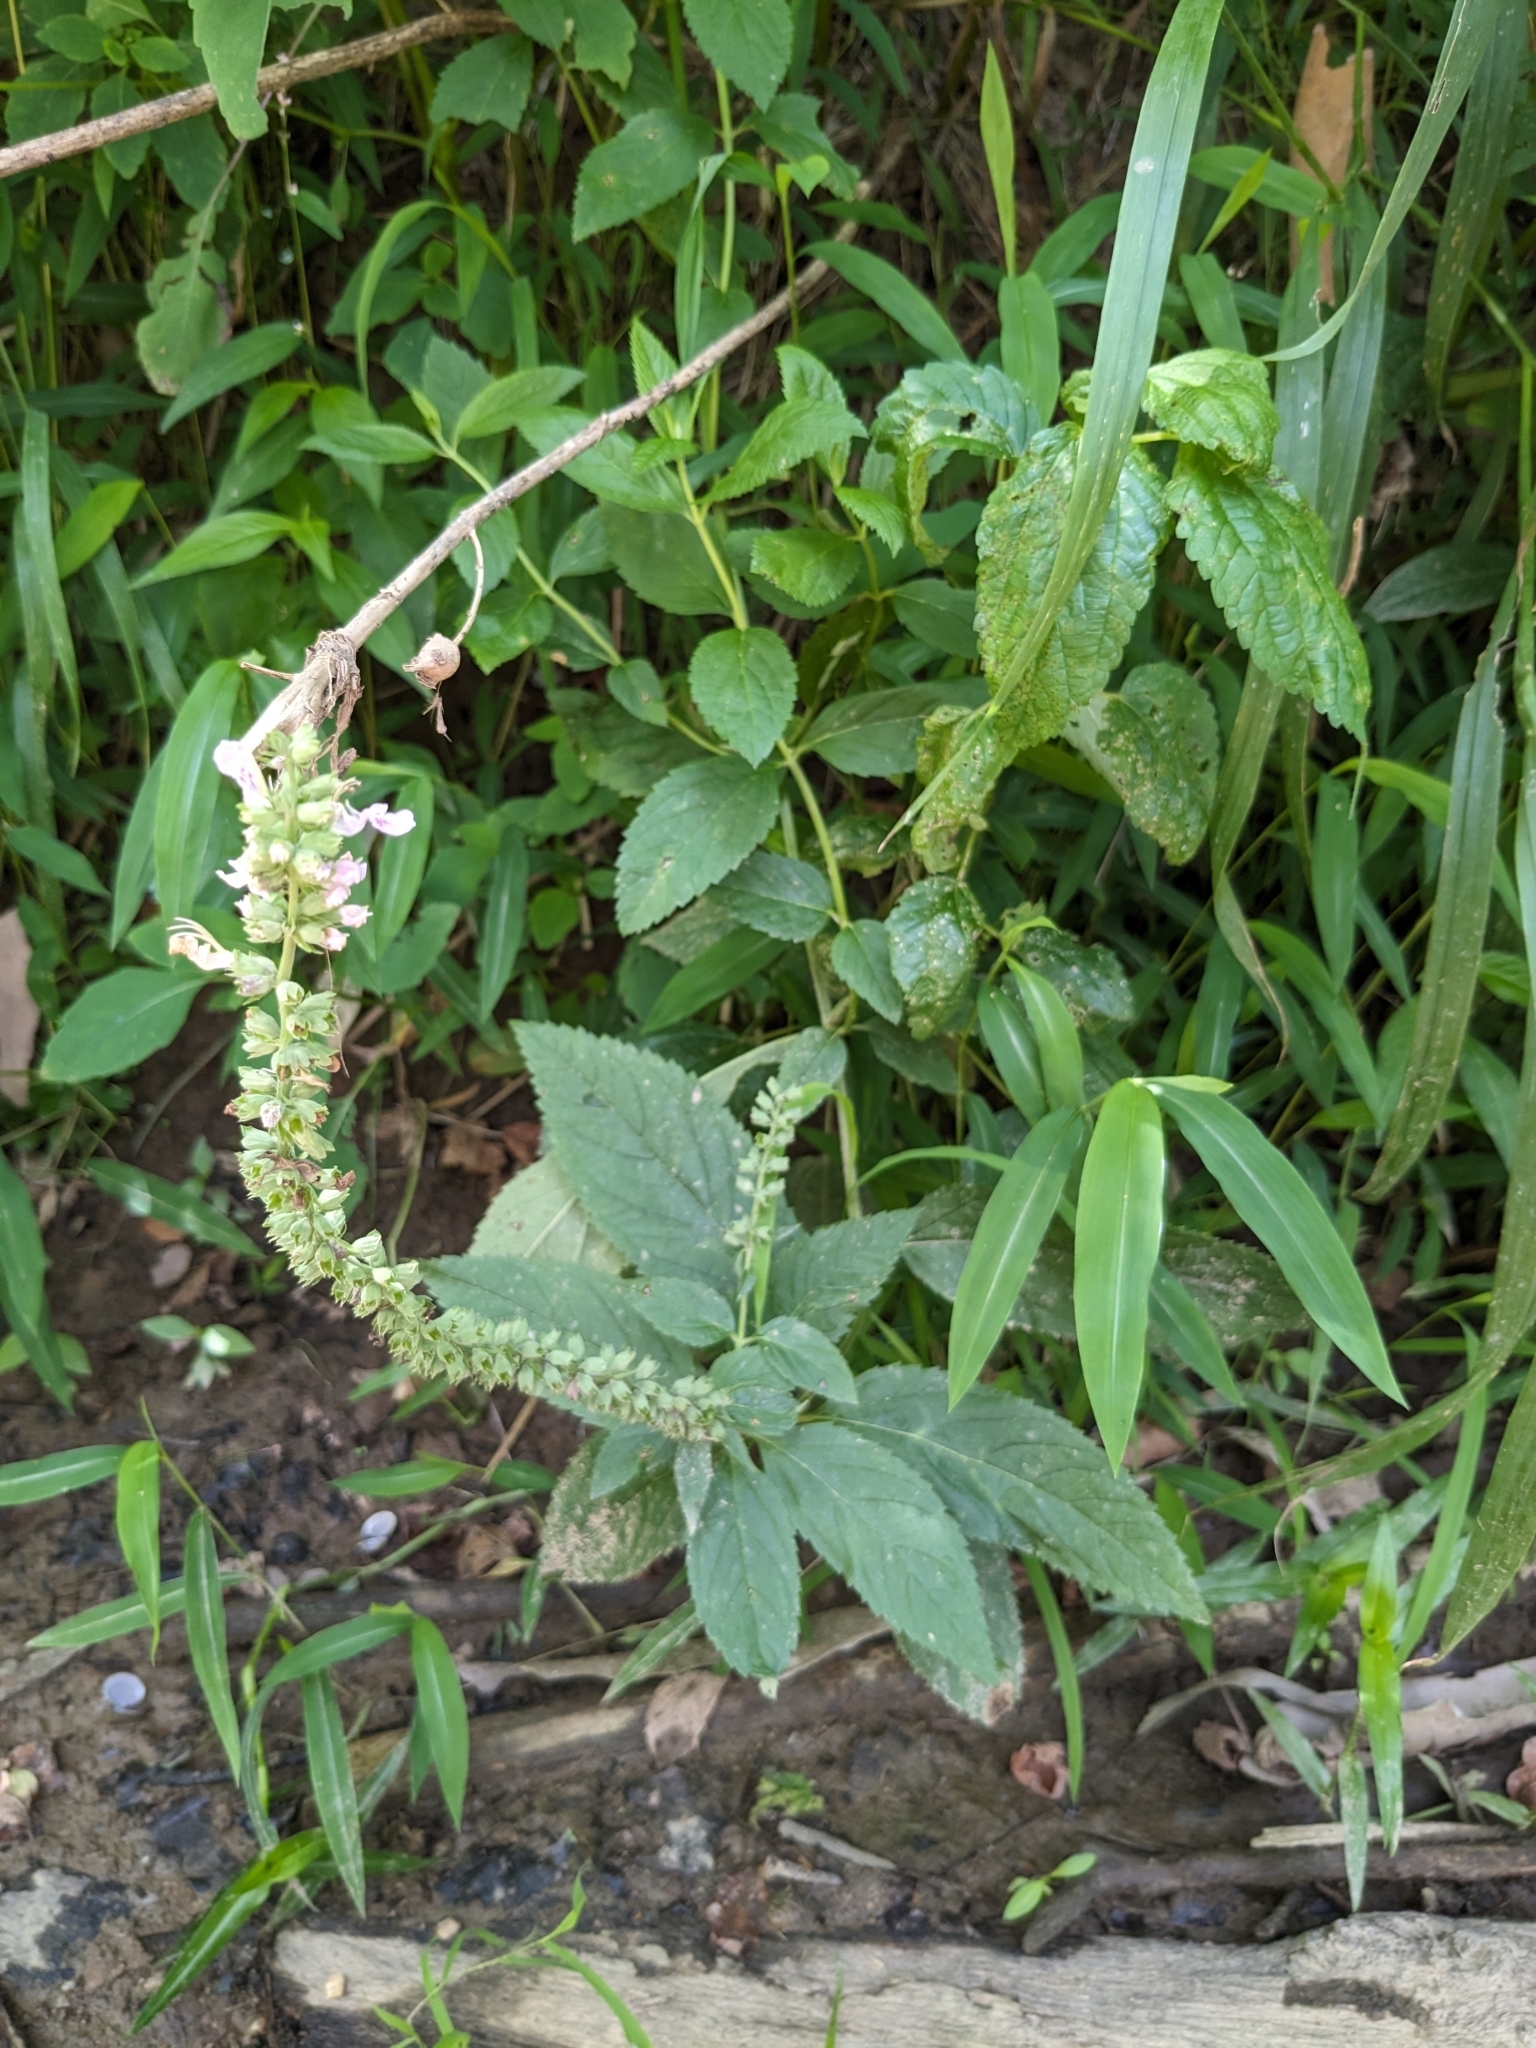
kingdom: Plantae
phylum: Tracheophyta
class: Magnoliopsida
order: Lamiales
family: Lamiaceae
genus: Teucrium
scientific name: Teucrium canadense
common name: American germander
